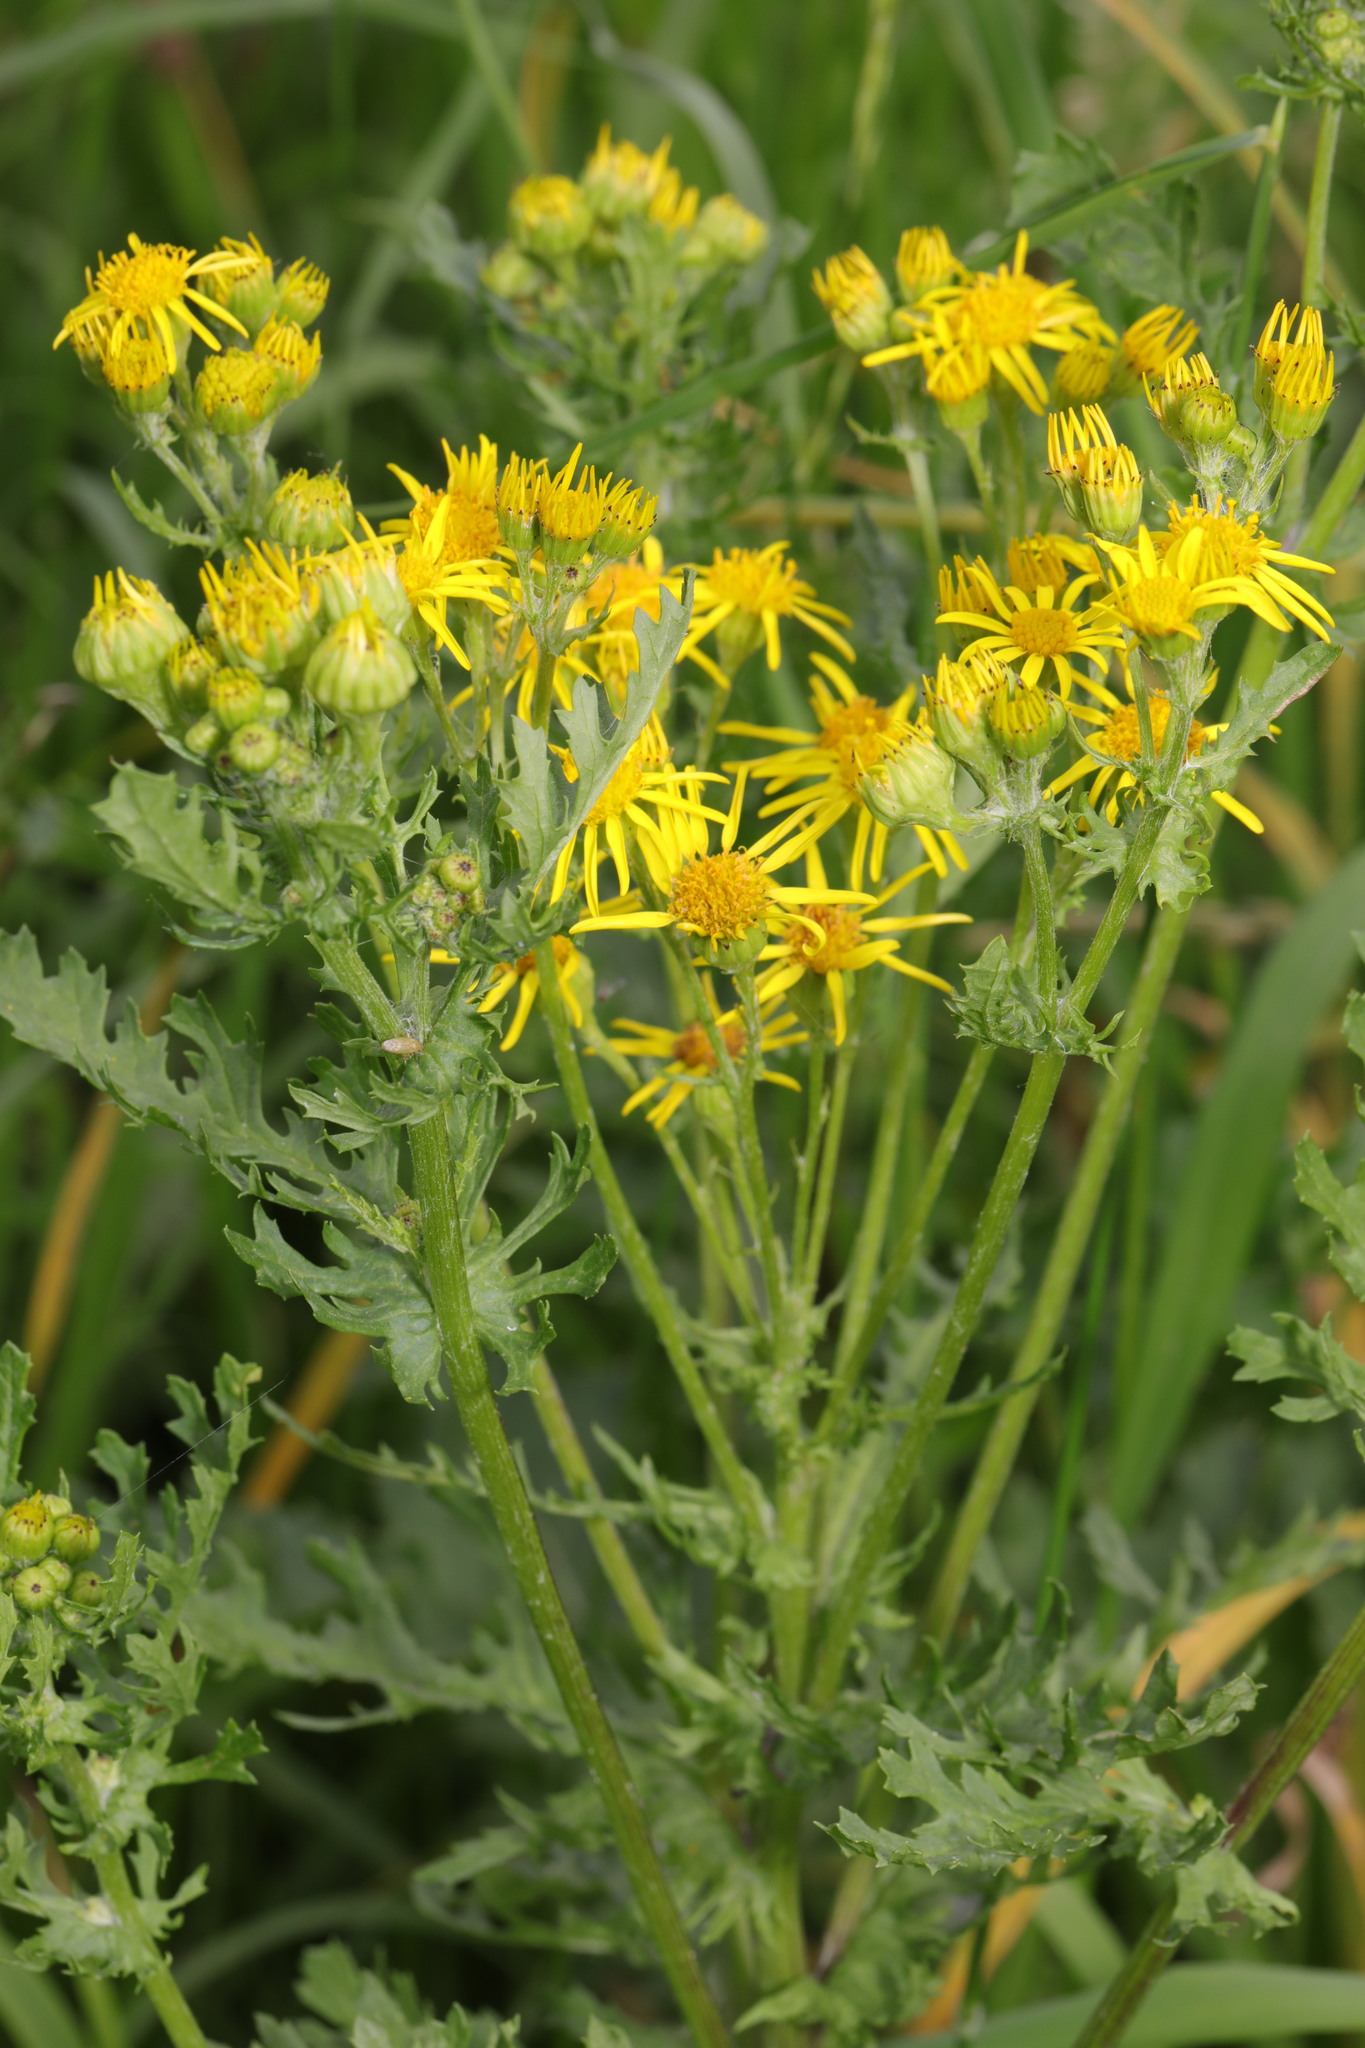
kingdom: Plantae
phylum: Tracheophyta
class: Magnoliopsida
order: Asterales
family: Asteraceae
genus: Jacobaea
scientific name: Jacobaea vulgaris
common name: Stinking willie
